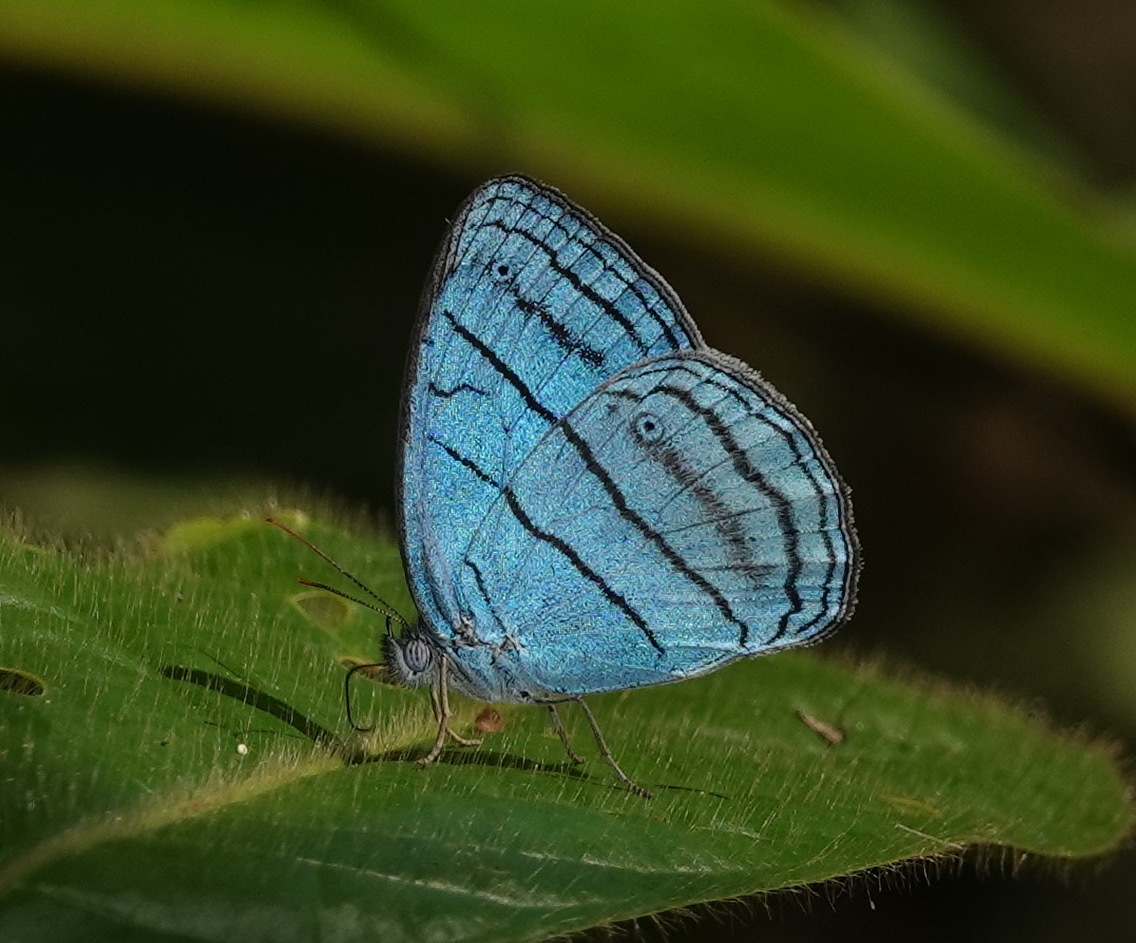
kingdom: Animalia
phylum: Arthropoda
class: Insecta
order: Lepidoptera
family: Nymphalidae
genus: Caeruleuptychia
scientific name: Caeruleuptychia lobelia
